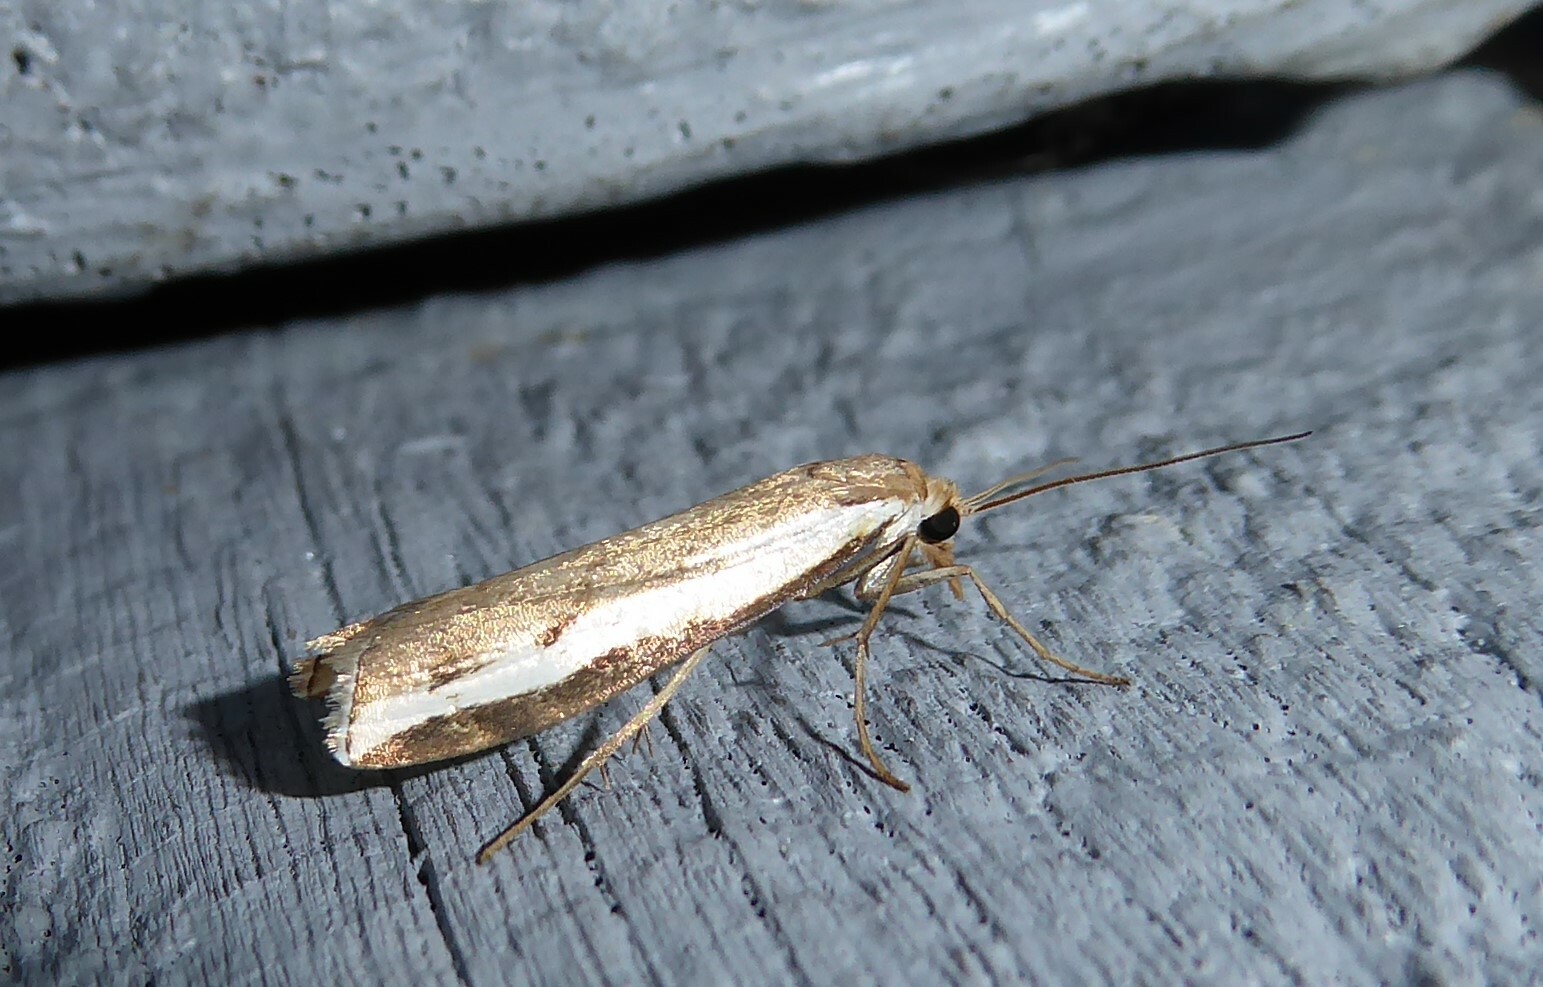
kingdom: Animalia
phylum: Arthropoda
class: Insecta
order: Lepidoptera
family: Crambidae
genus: Orocrambus
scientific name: Orocrambus flexuosellus
